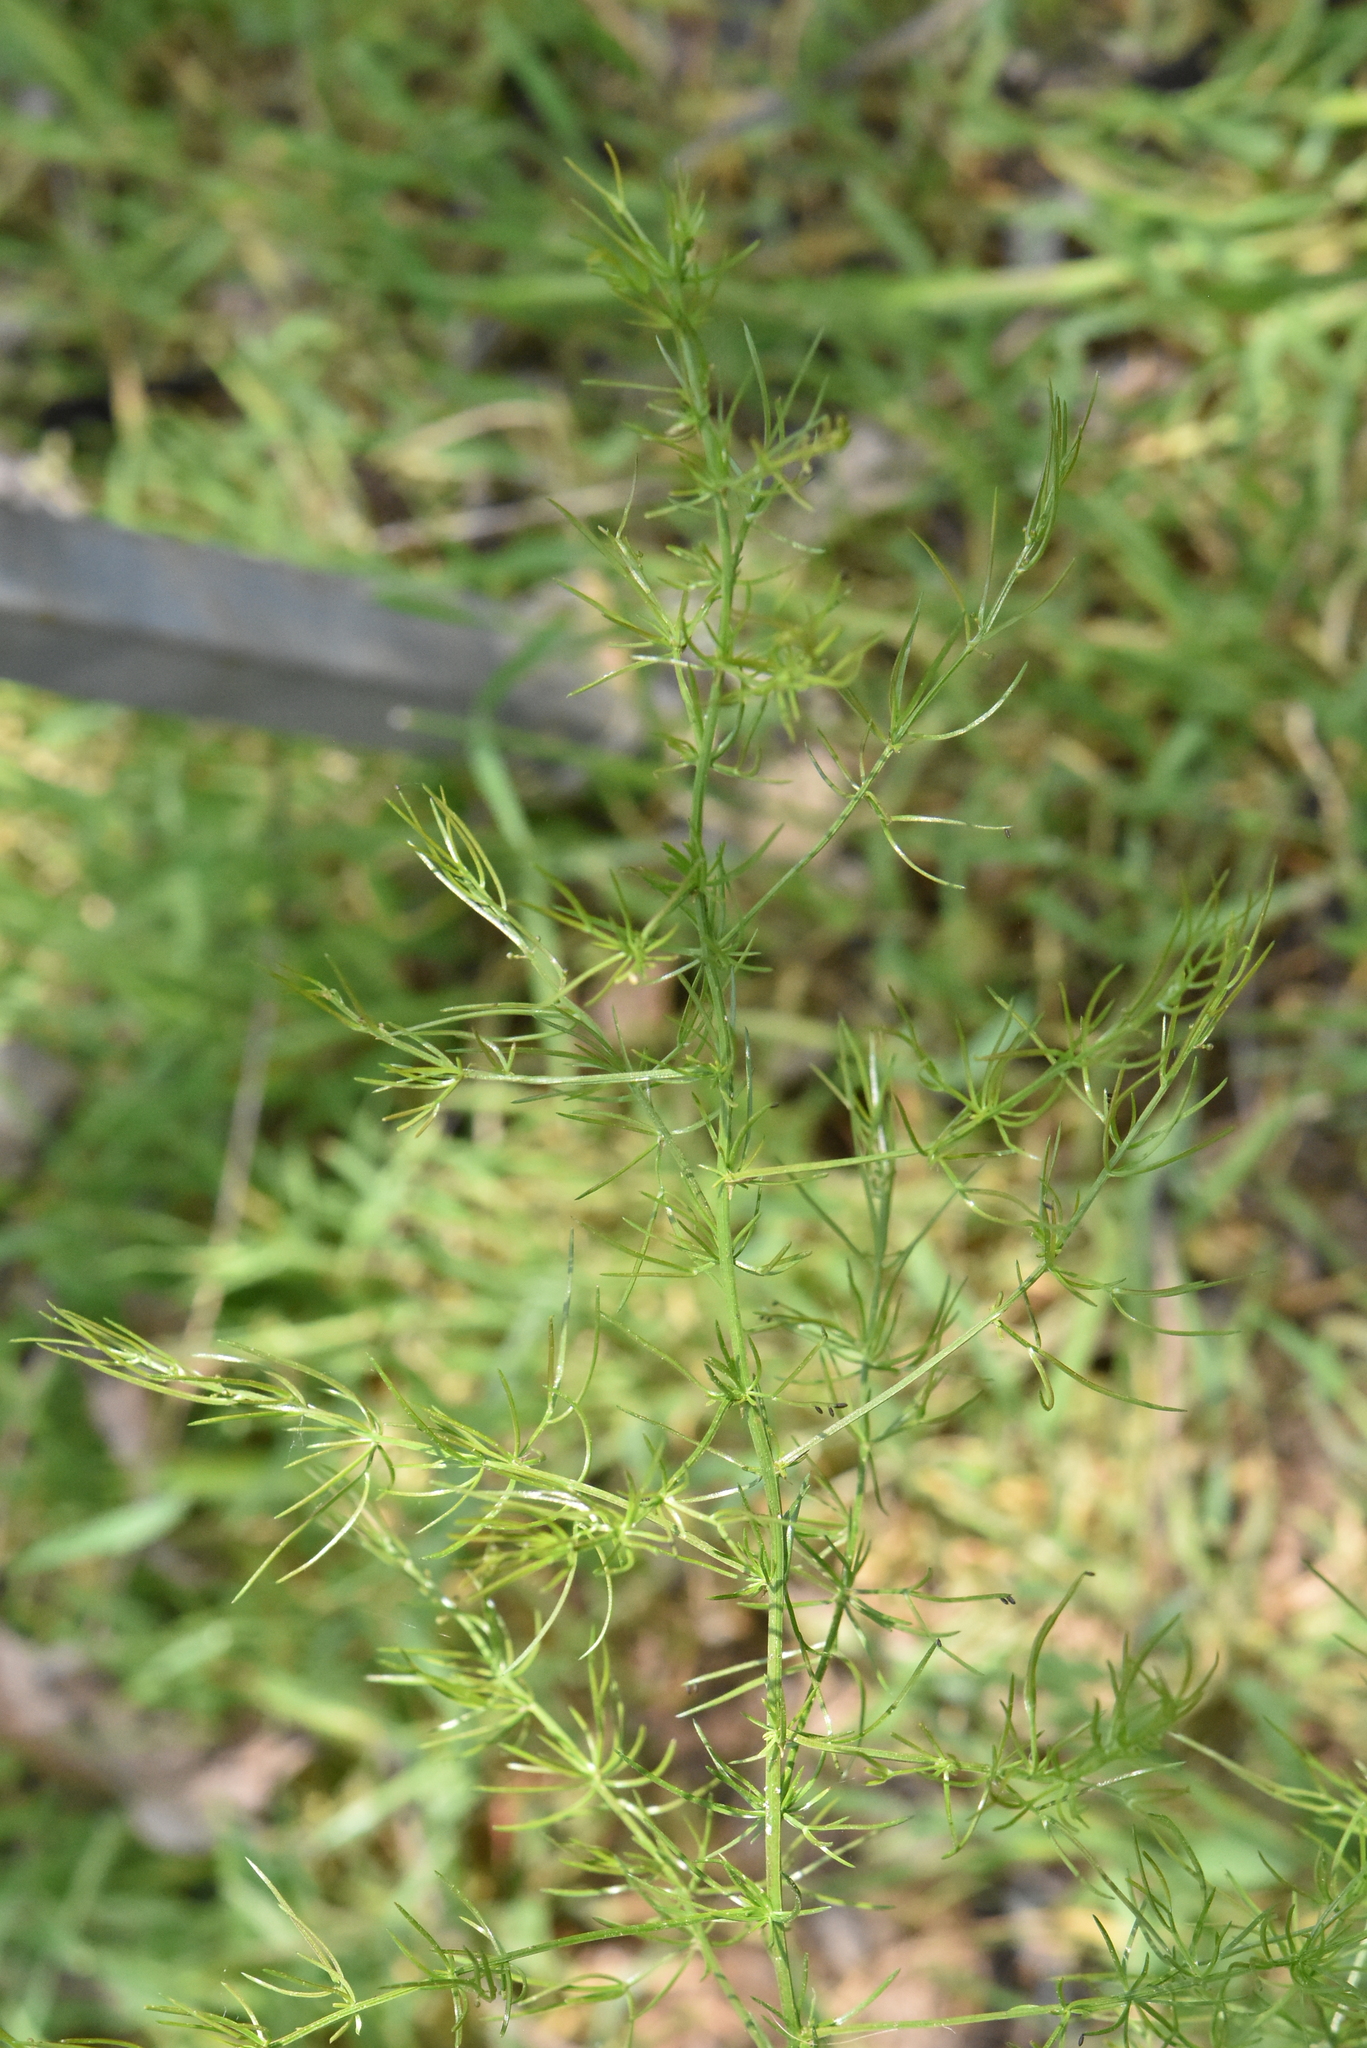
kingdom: Plantae
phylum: Tracheophyta
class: Liliopsida
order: Asparagales
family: Asparagaceae
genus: Asparagus
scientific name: Asparagus verticillatus
